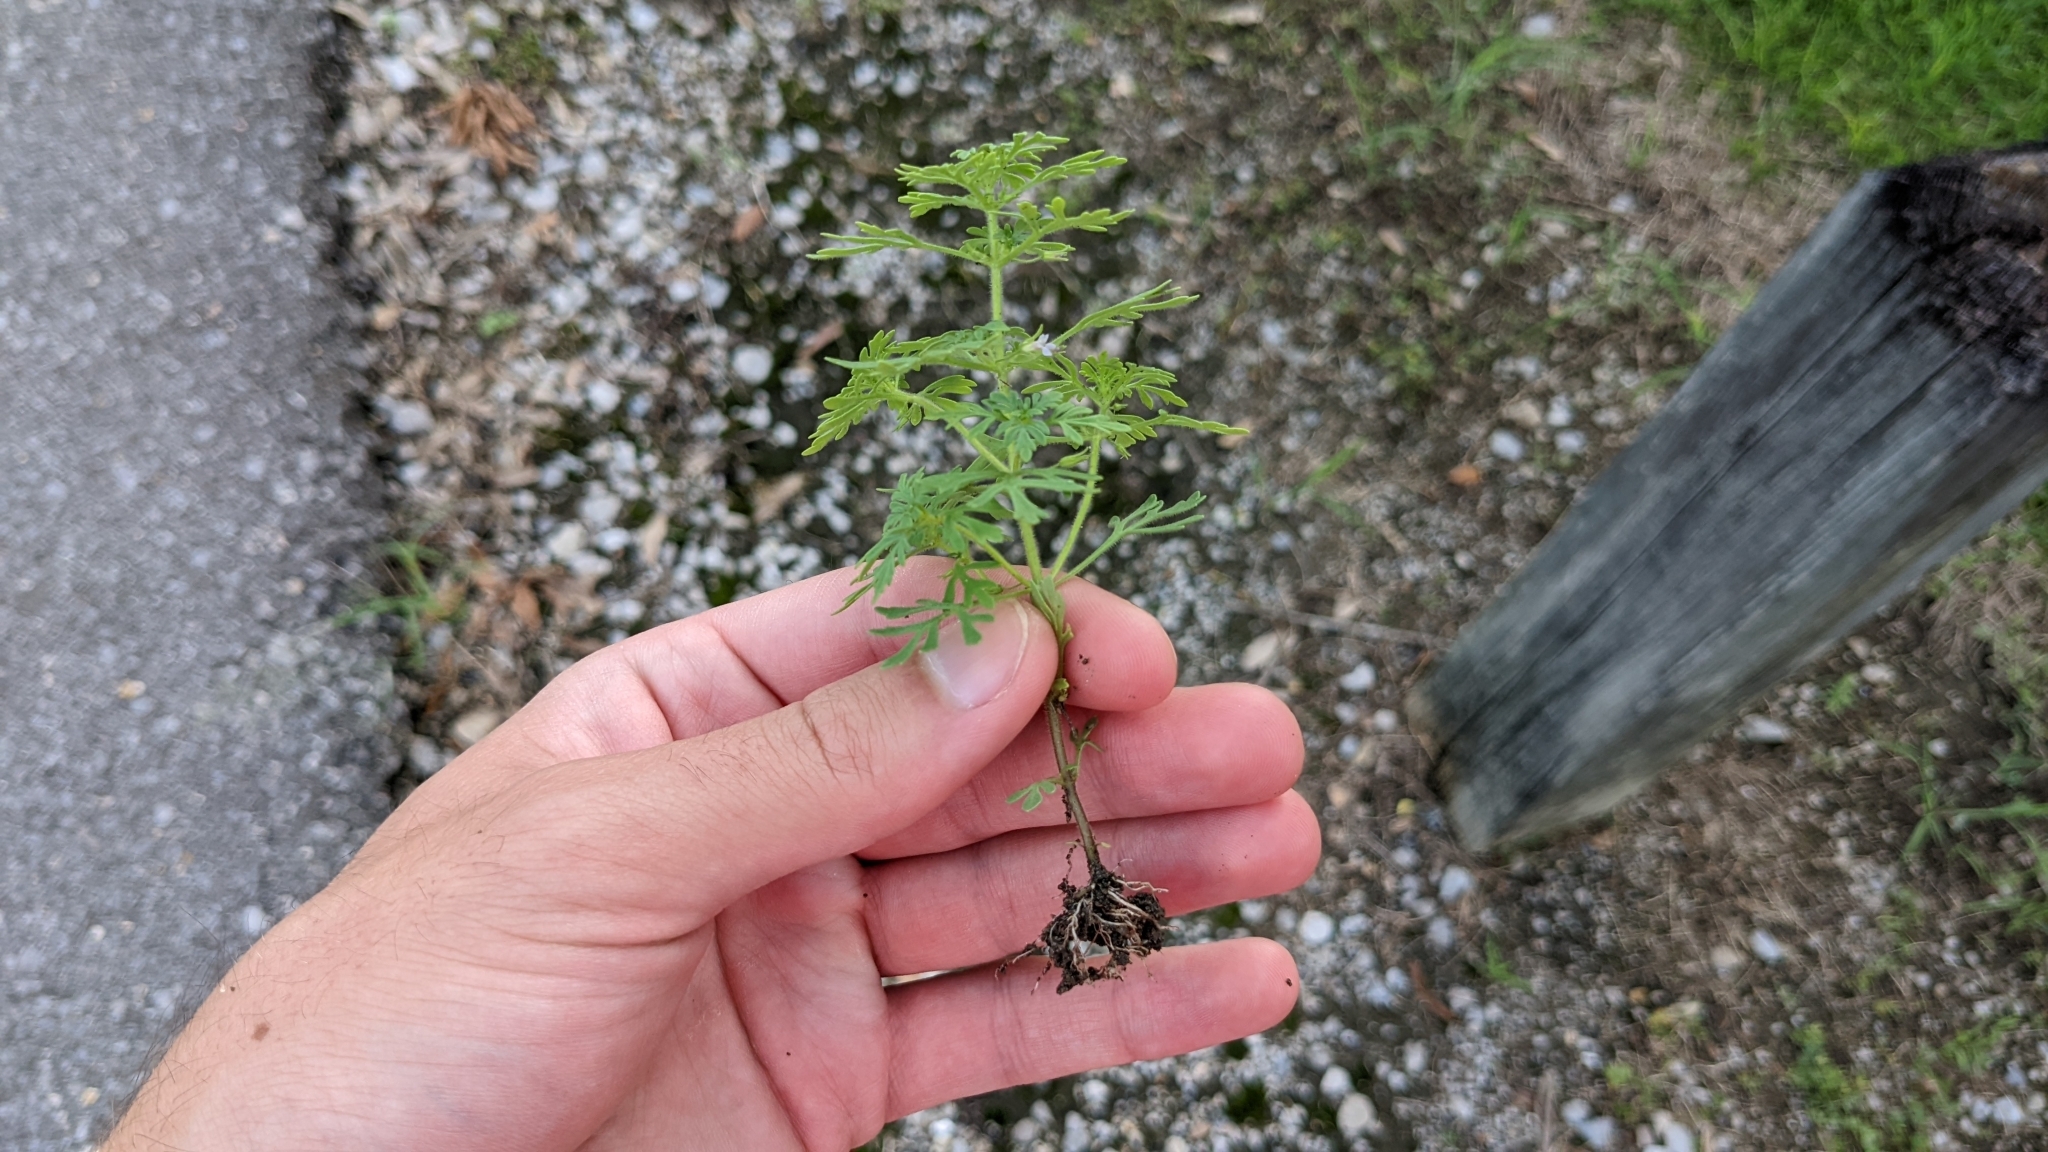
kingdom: Plantae
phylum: Tracheophyta
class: Magnoliopsida
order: Lamiales
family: Plantaginaceae
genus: Leucospora
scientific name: Leucospora multifida
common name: Narrow-leaf paleseed
